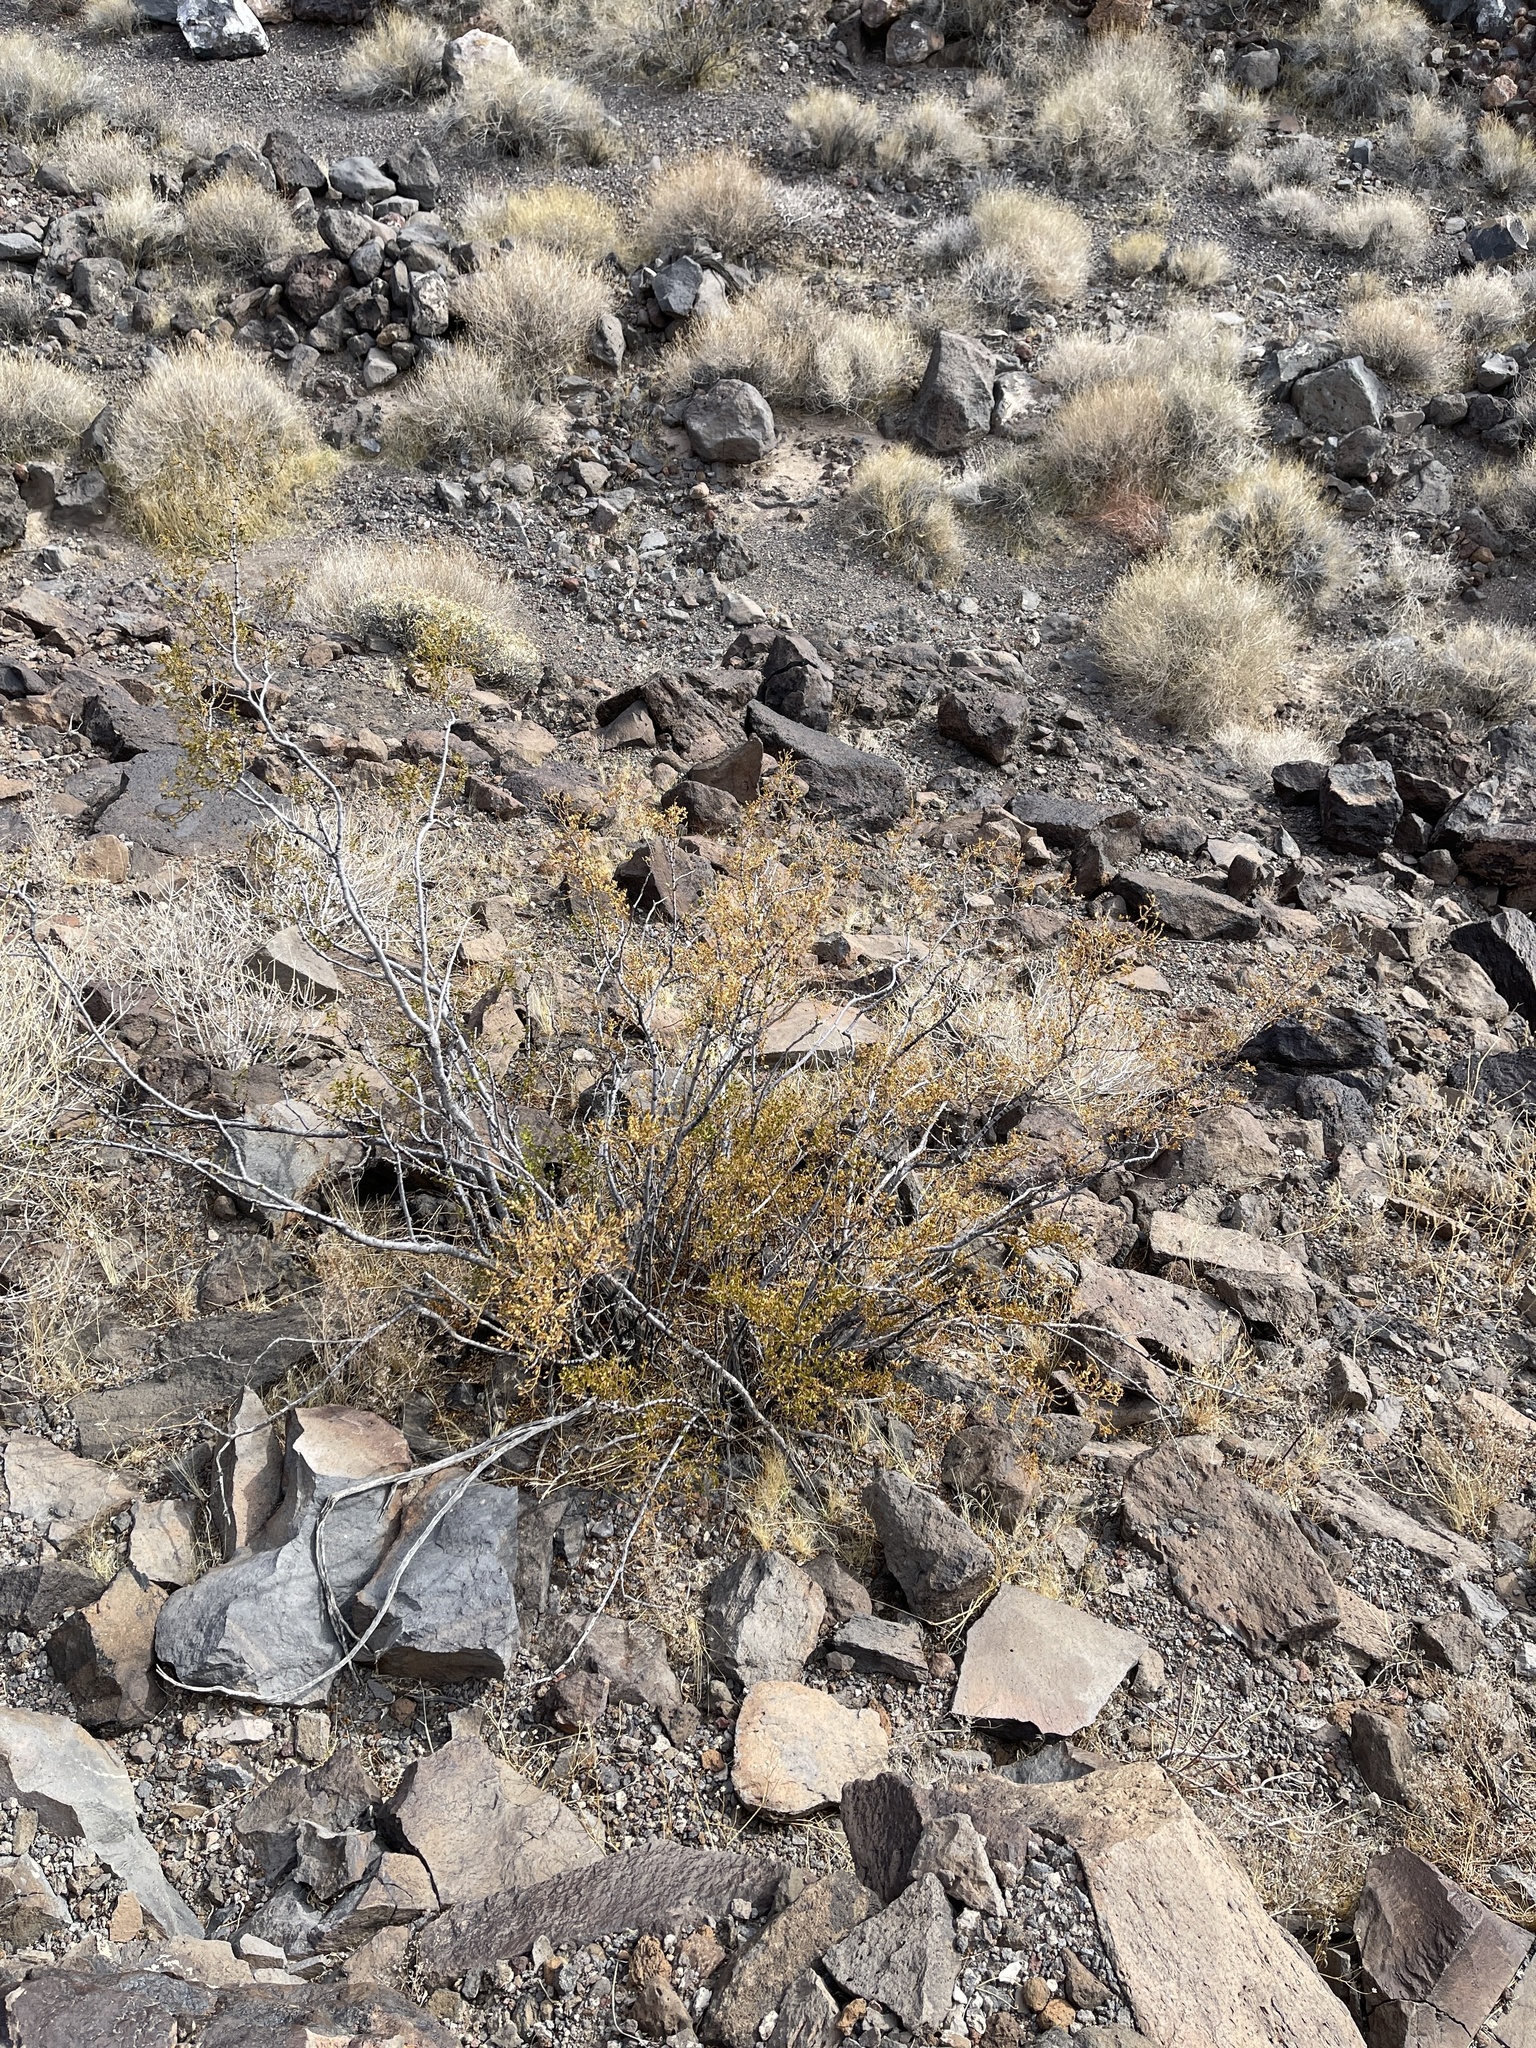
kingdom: Plantae
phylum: Tracheophyta
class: Magnoliopsida
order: Zygophyllales
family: Zygophyllaceae
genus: Larrea
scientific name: Larrea tridentata
